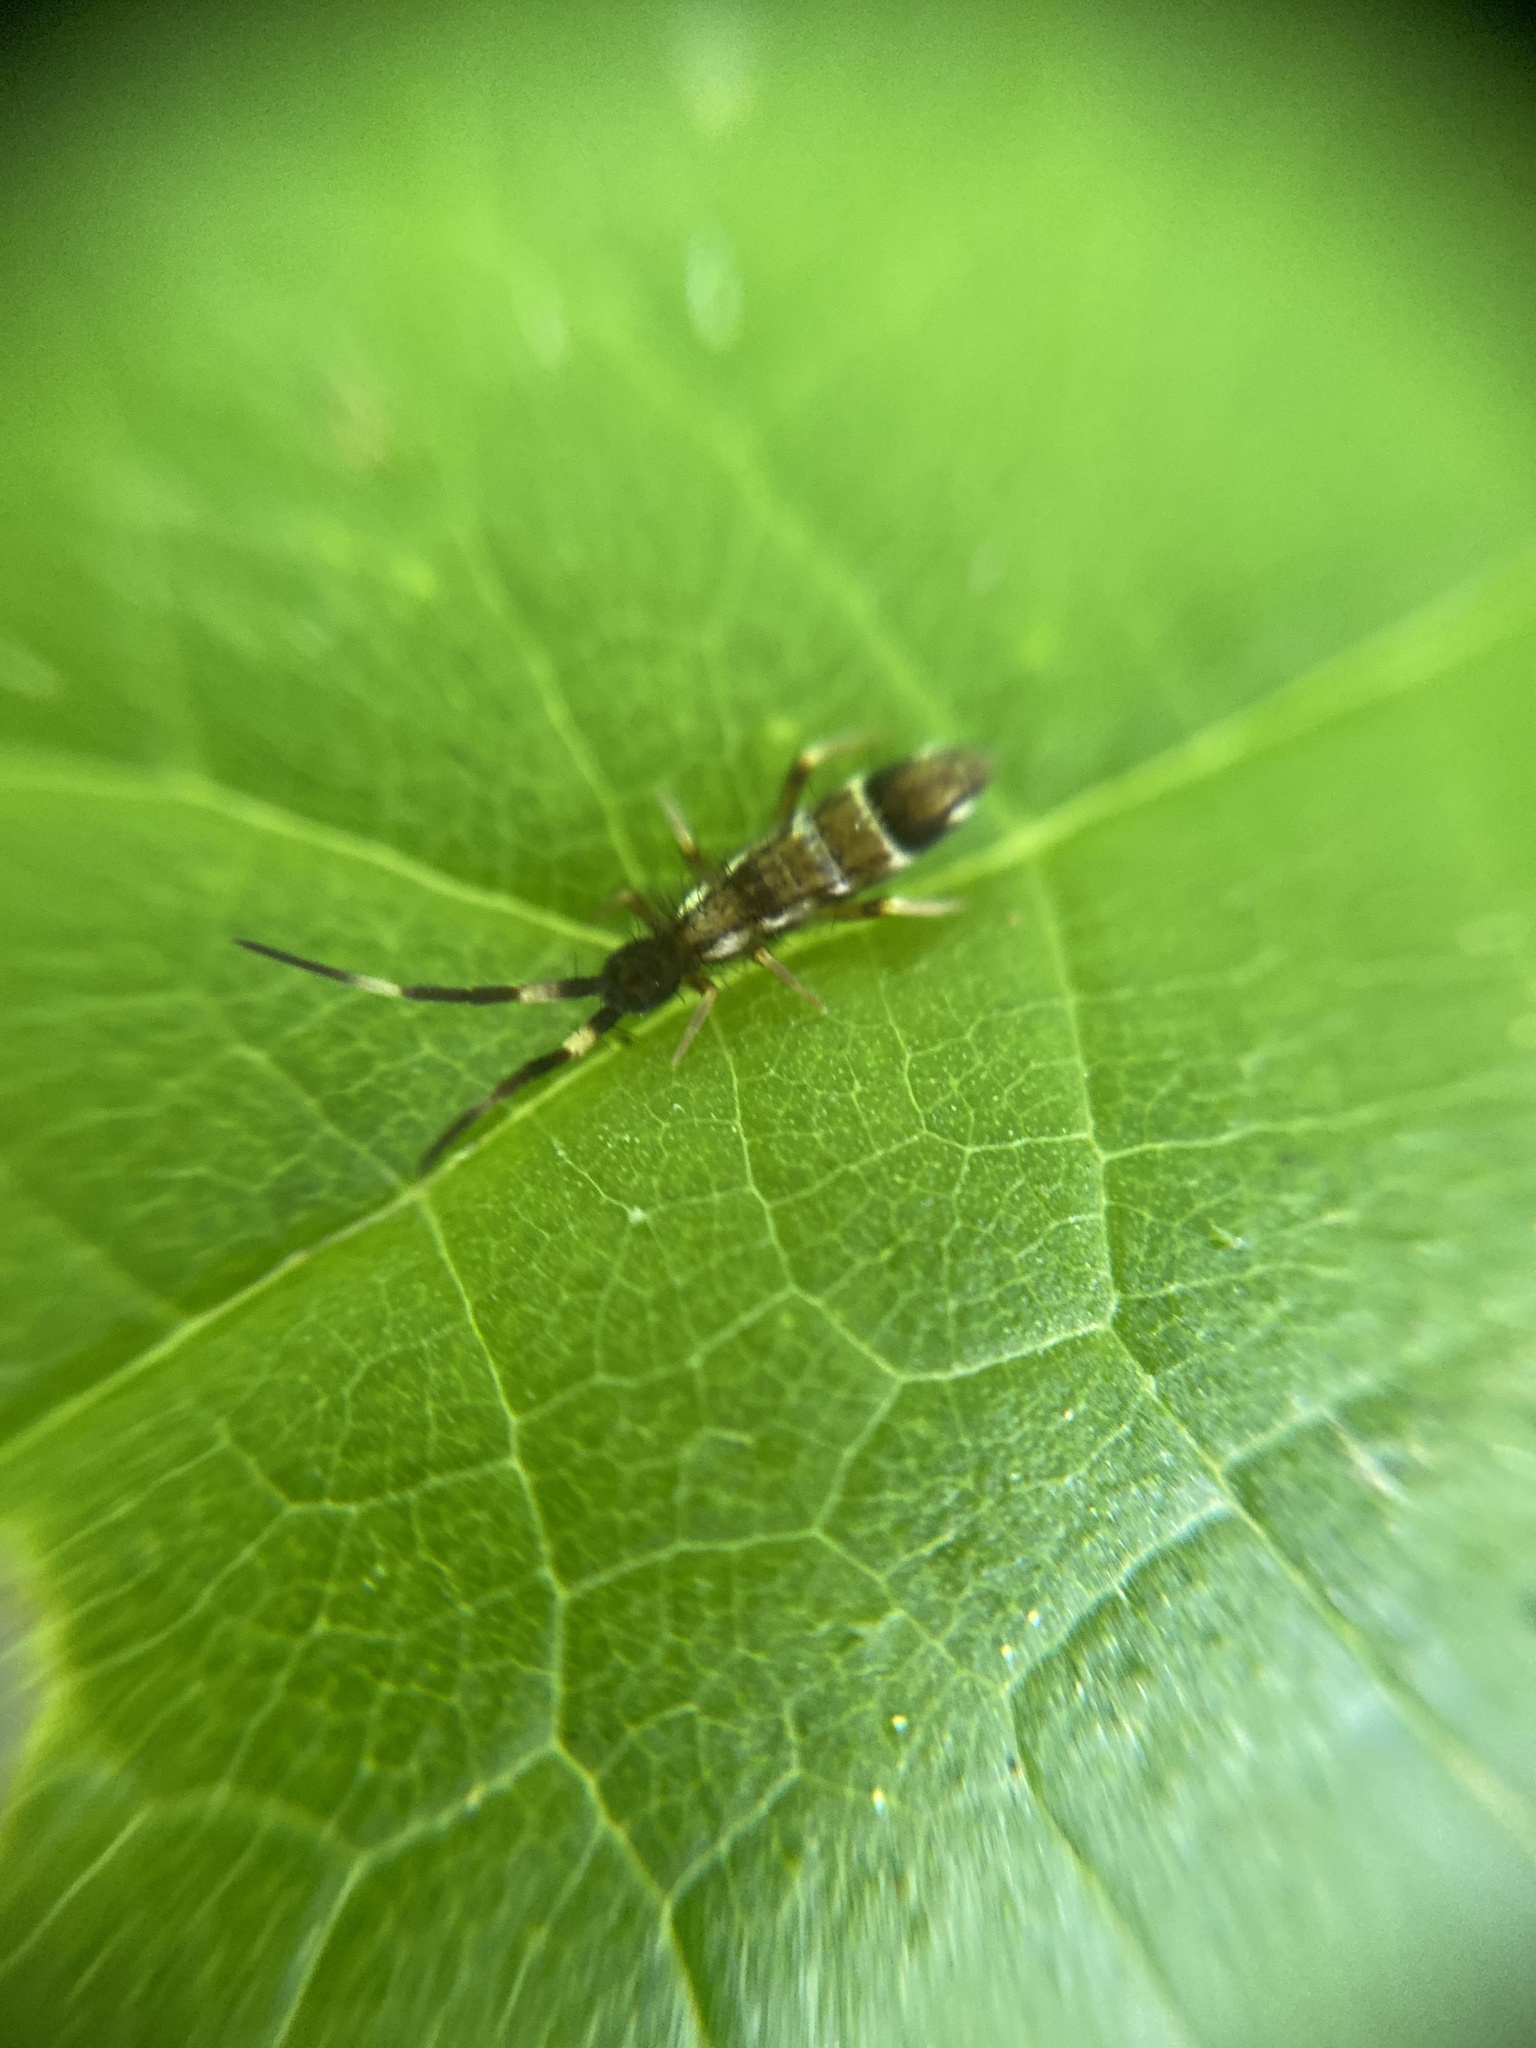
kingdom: Animalia
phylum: Arthropoda
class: Collembola
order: Entomobryomorpha
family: Entomobryidae
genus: Entomobrya
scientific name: Entomobrya nivalis
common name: Cosmopolitan springtail
